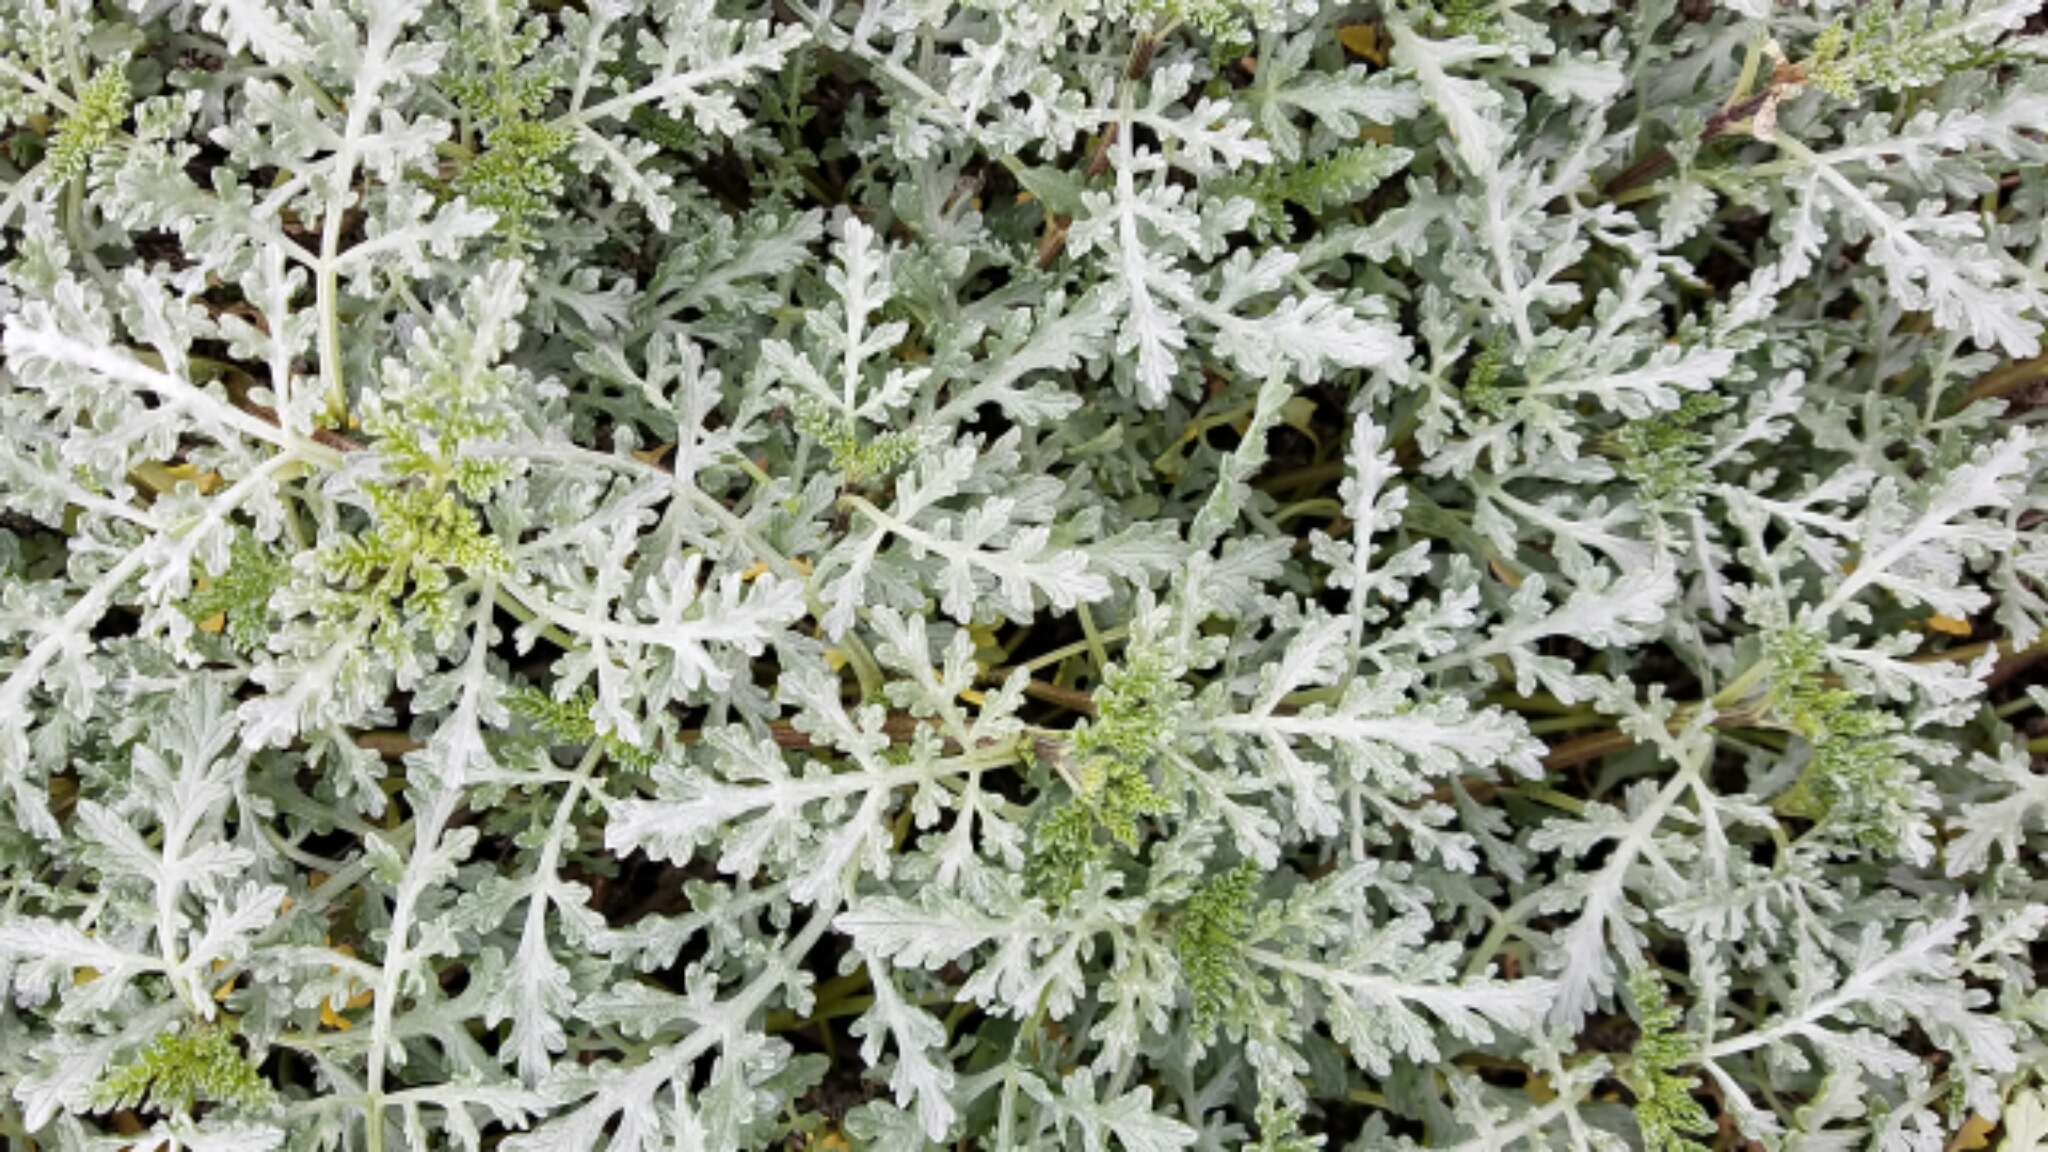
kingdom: Plantae
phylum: Tracheophyta
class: Magnoliopsida
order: Asterales
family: Asteraceae
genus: Ambrosia
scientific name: Ambrosia chamissonis
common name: Beachbur
